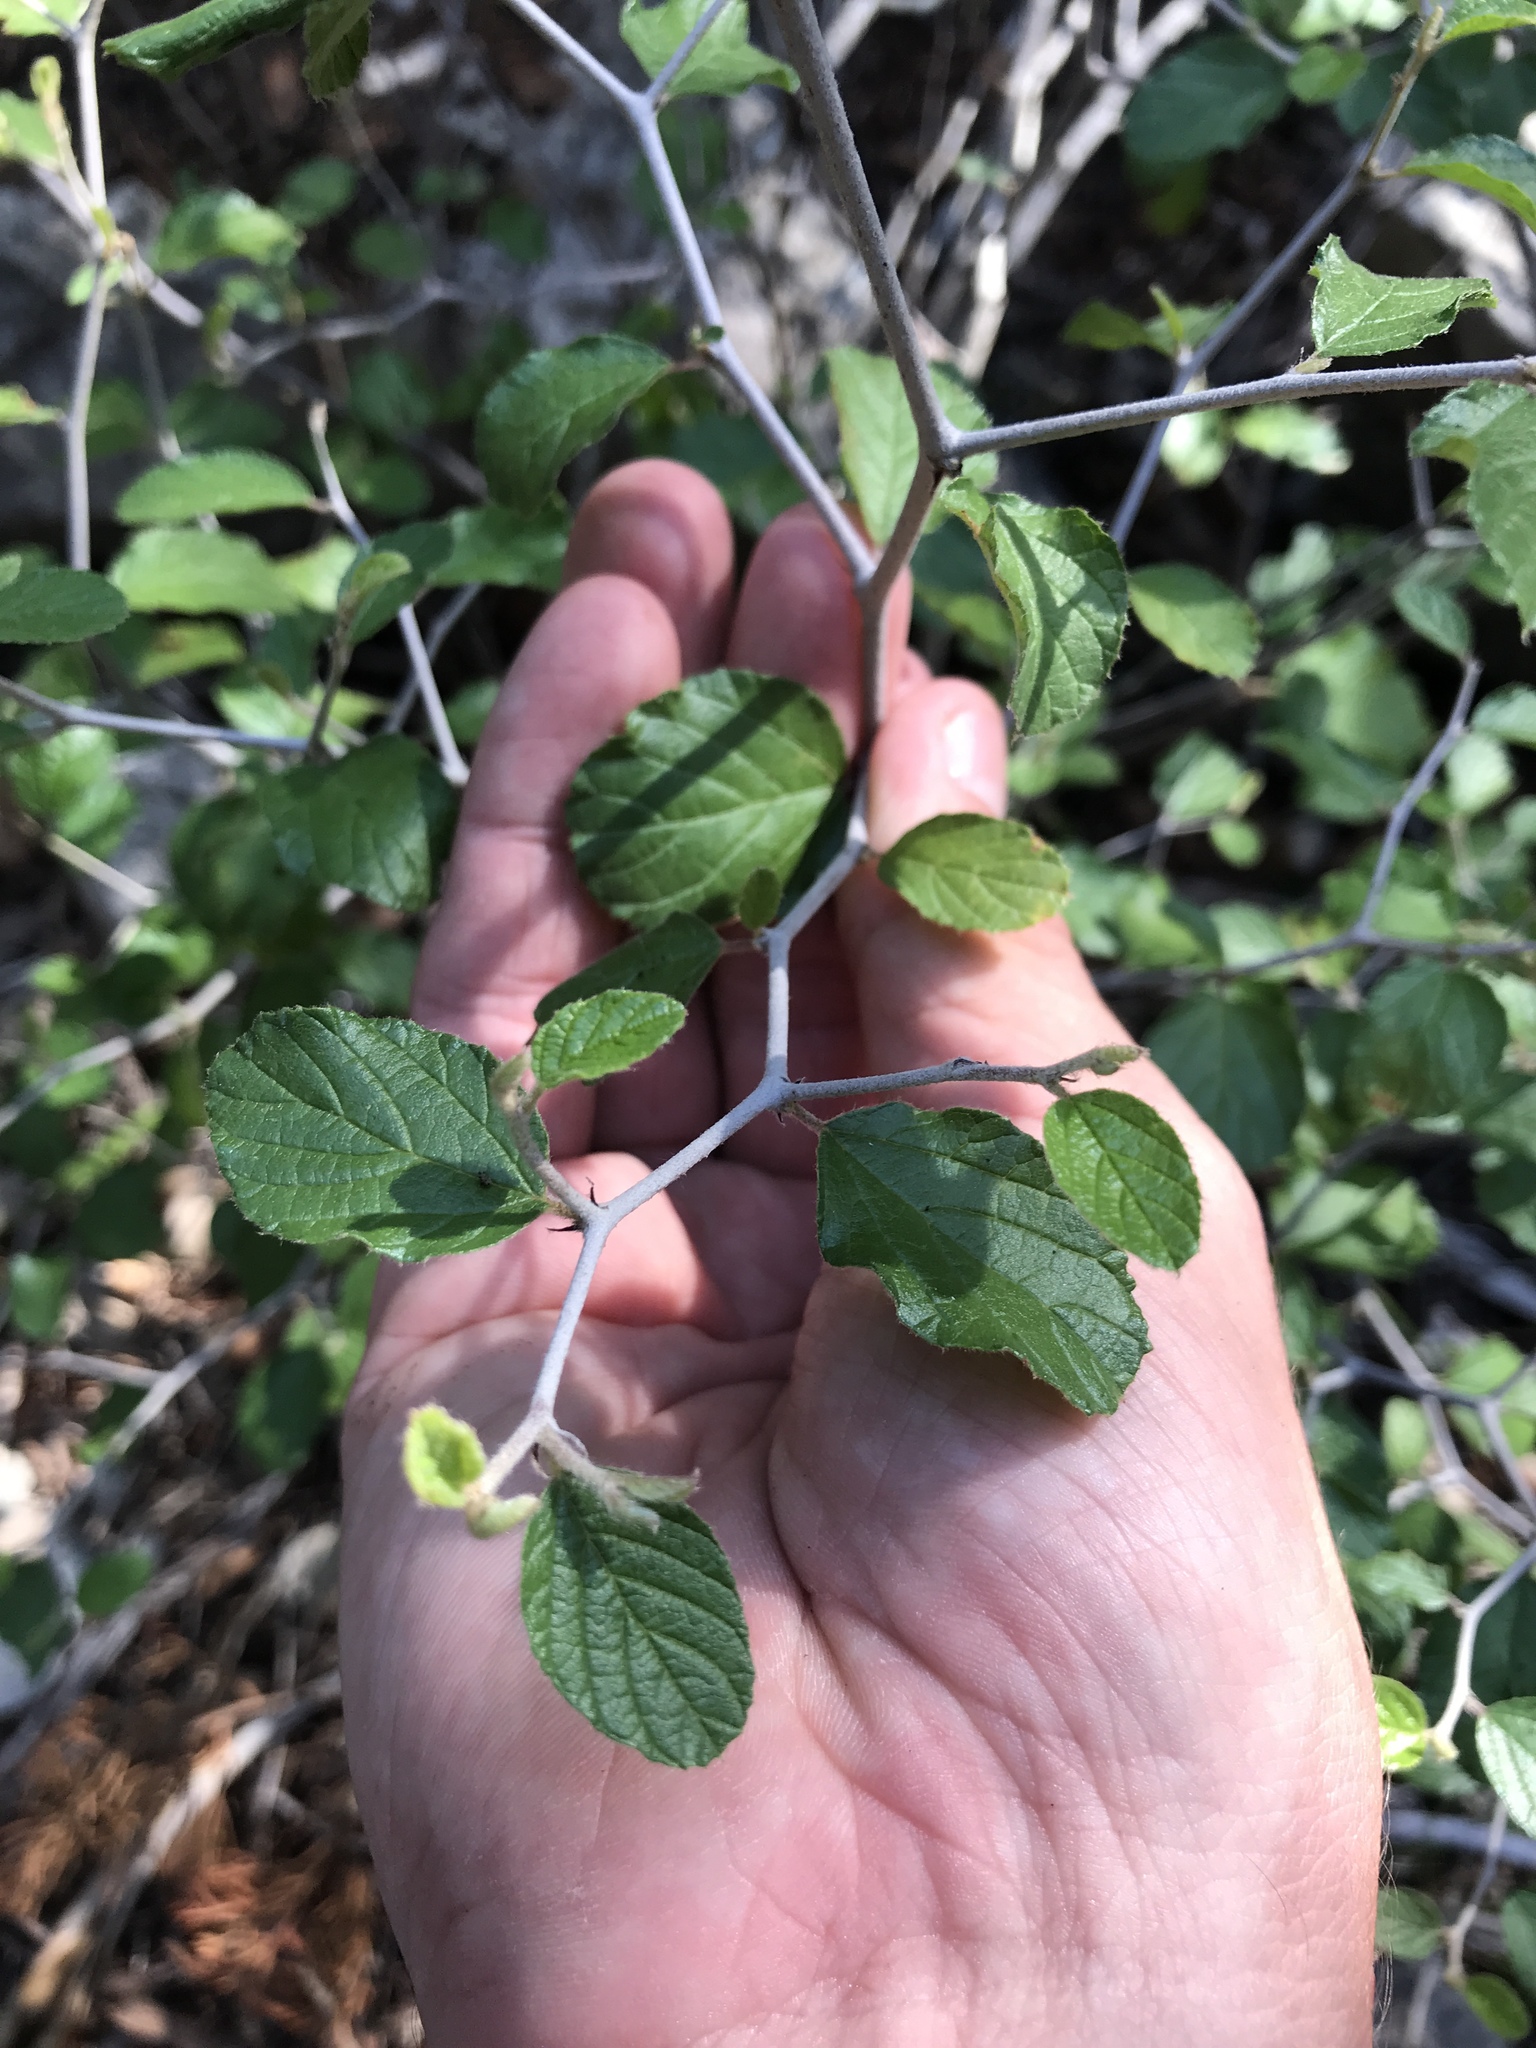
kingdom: Plantae
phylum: Tracheophyta
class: Magnoliopsida
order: Rosales
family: Rhamnaceae
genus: Colubrina
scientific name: Colubrina texensis
